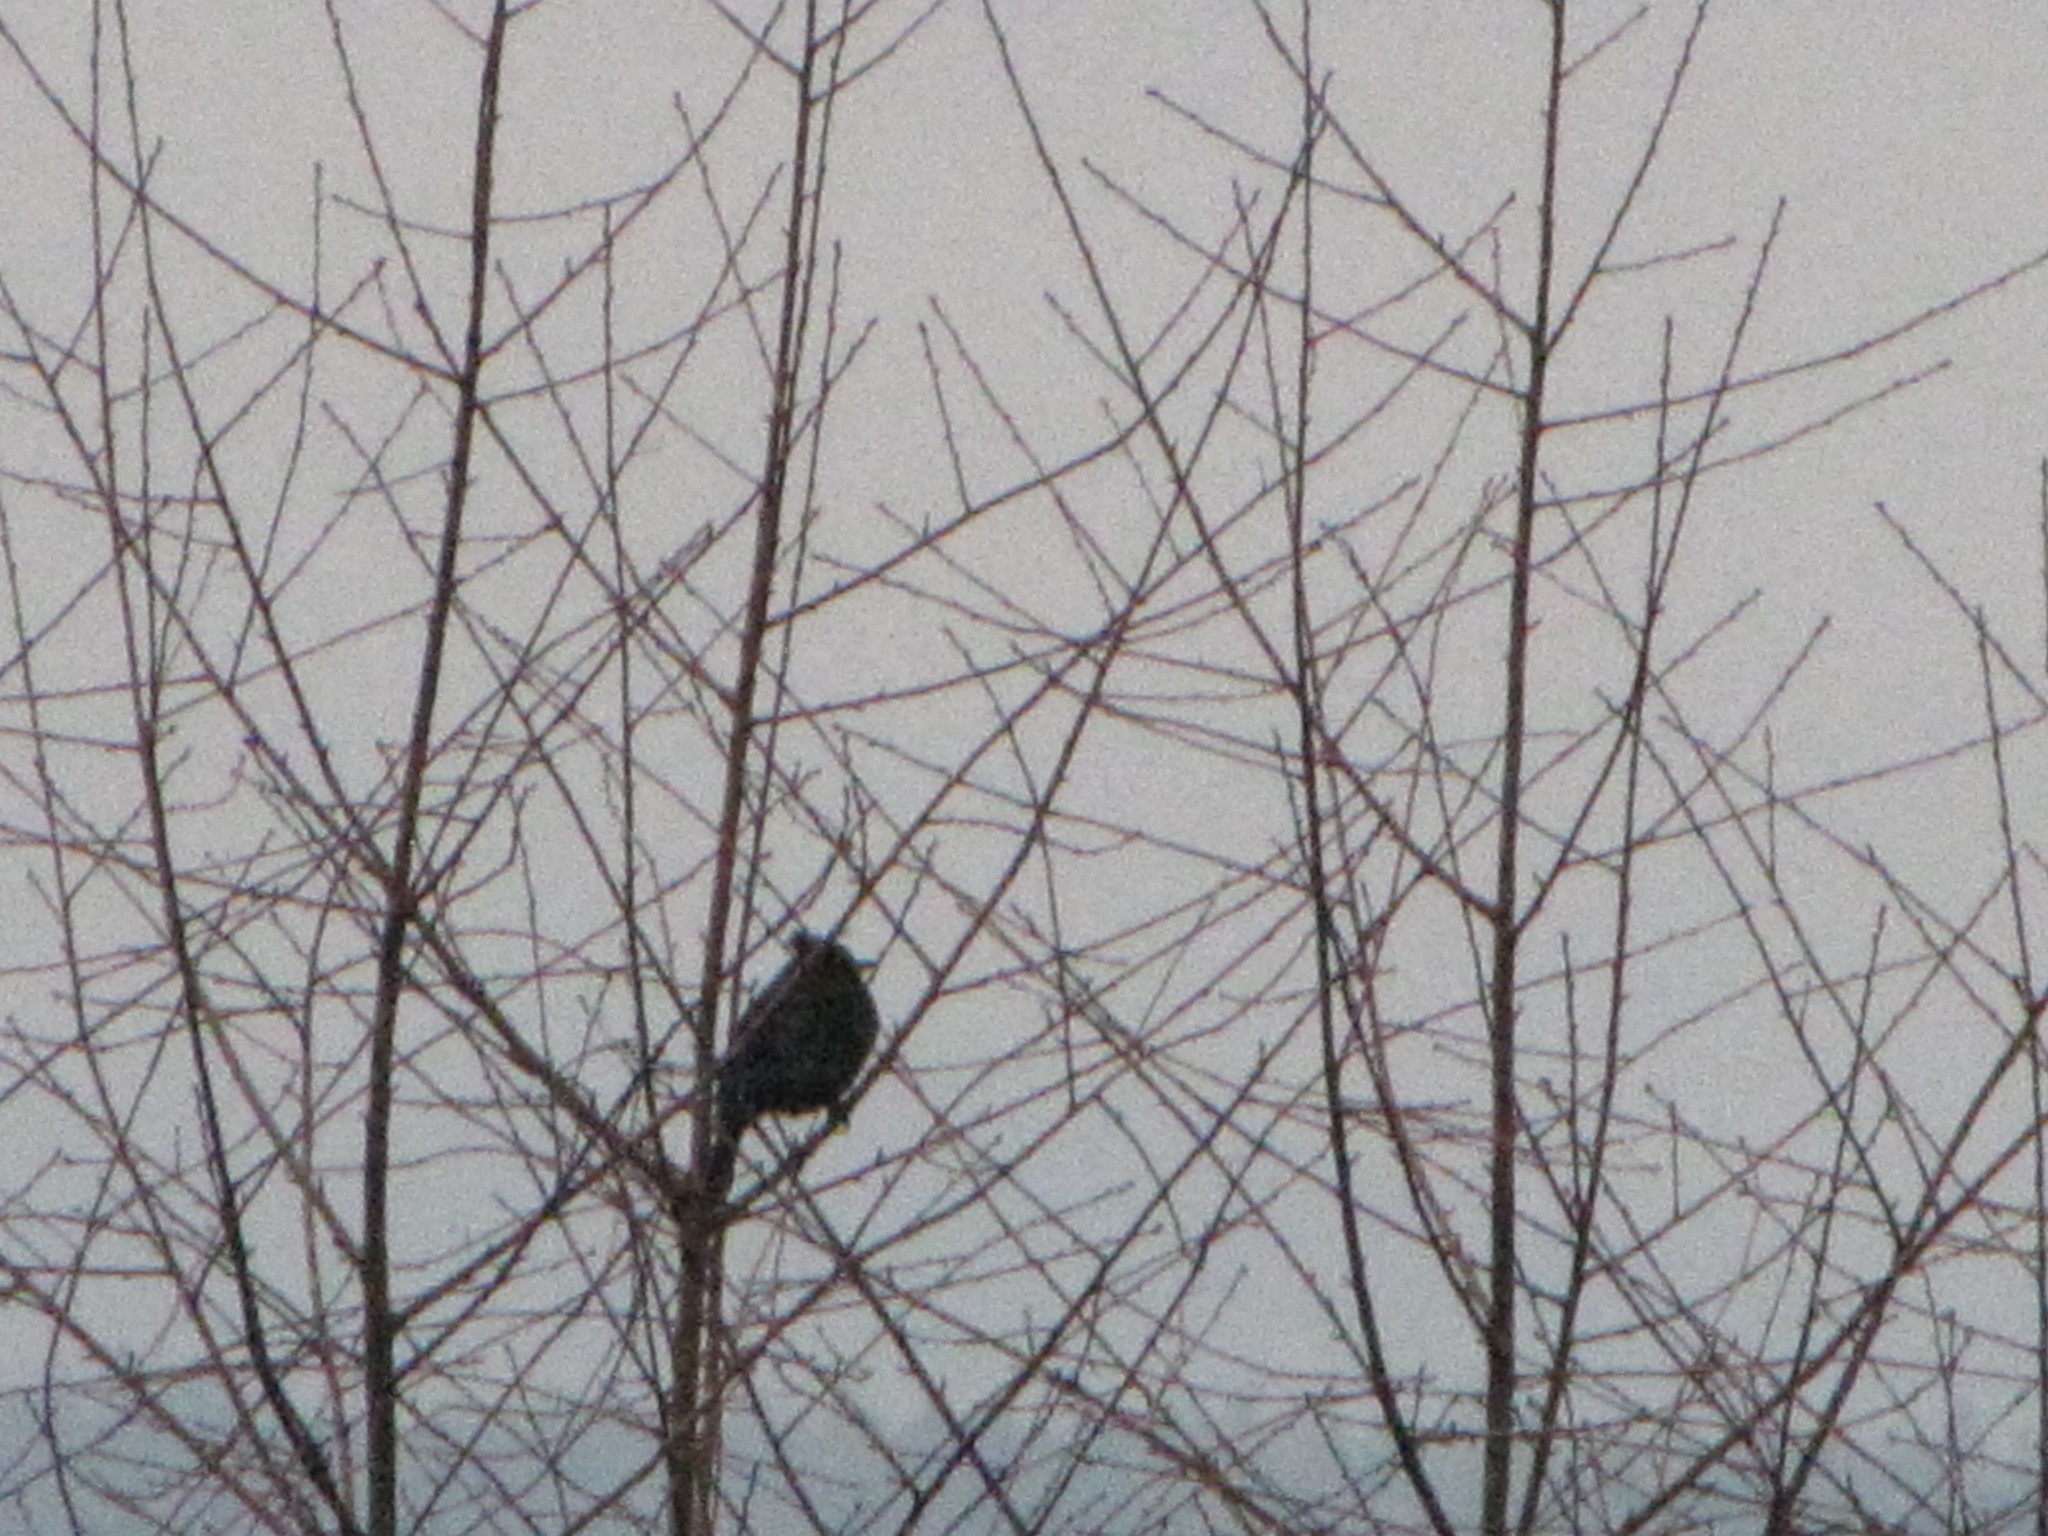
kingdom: Animalia
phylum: Chordata
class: Aves
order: Passeriformes
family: Corvidae
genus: Cyanocitta
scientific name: Cyanocitta stelleri
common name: Steller's jay
